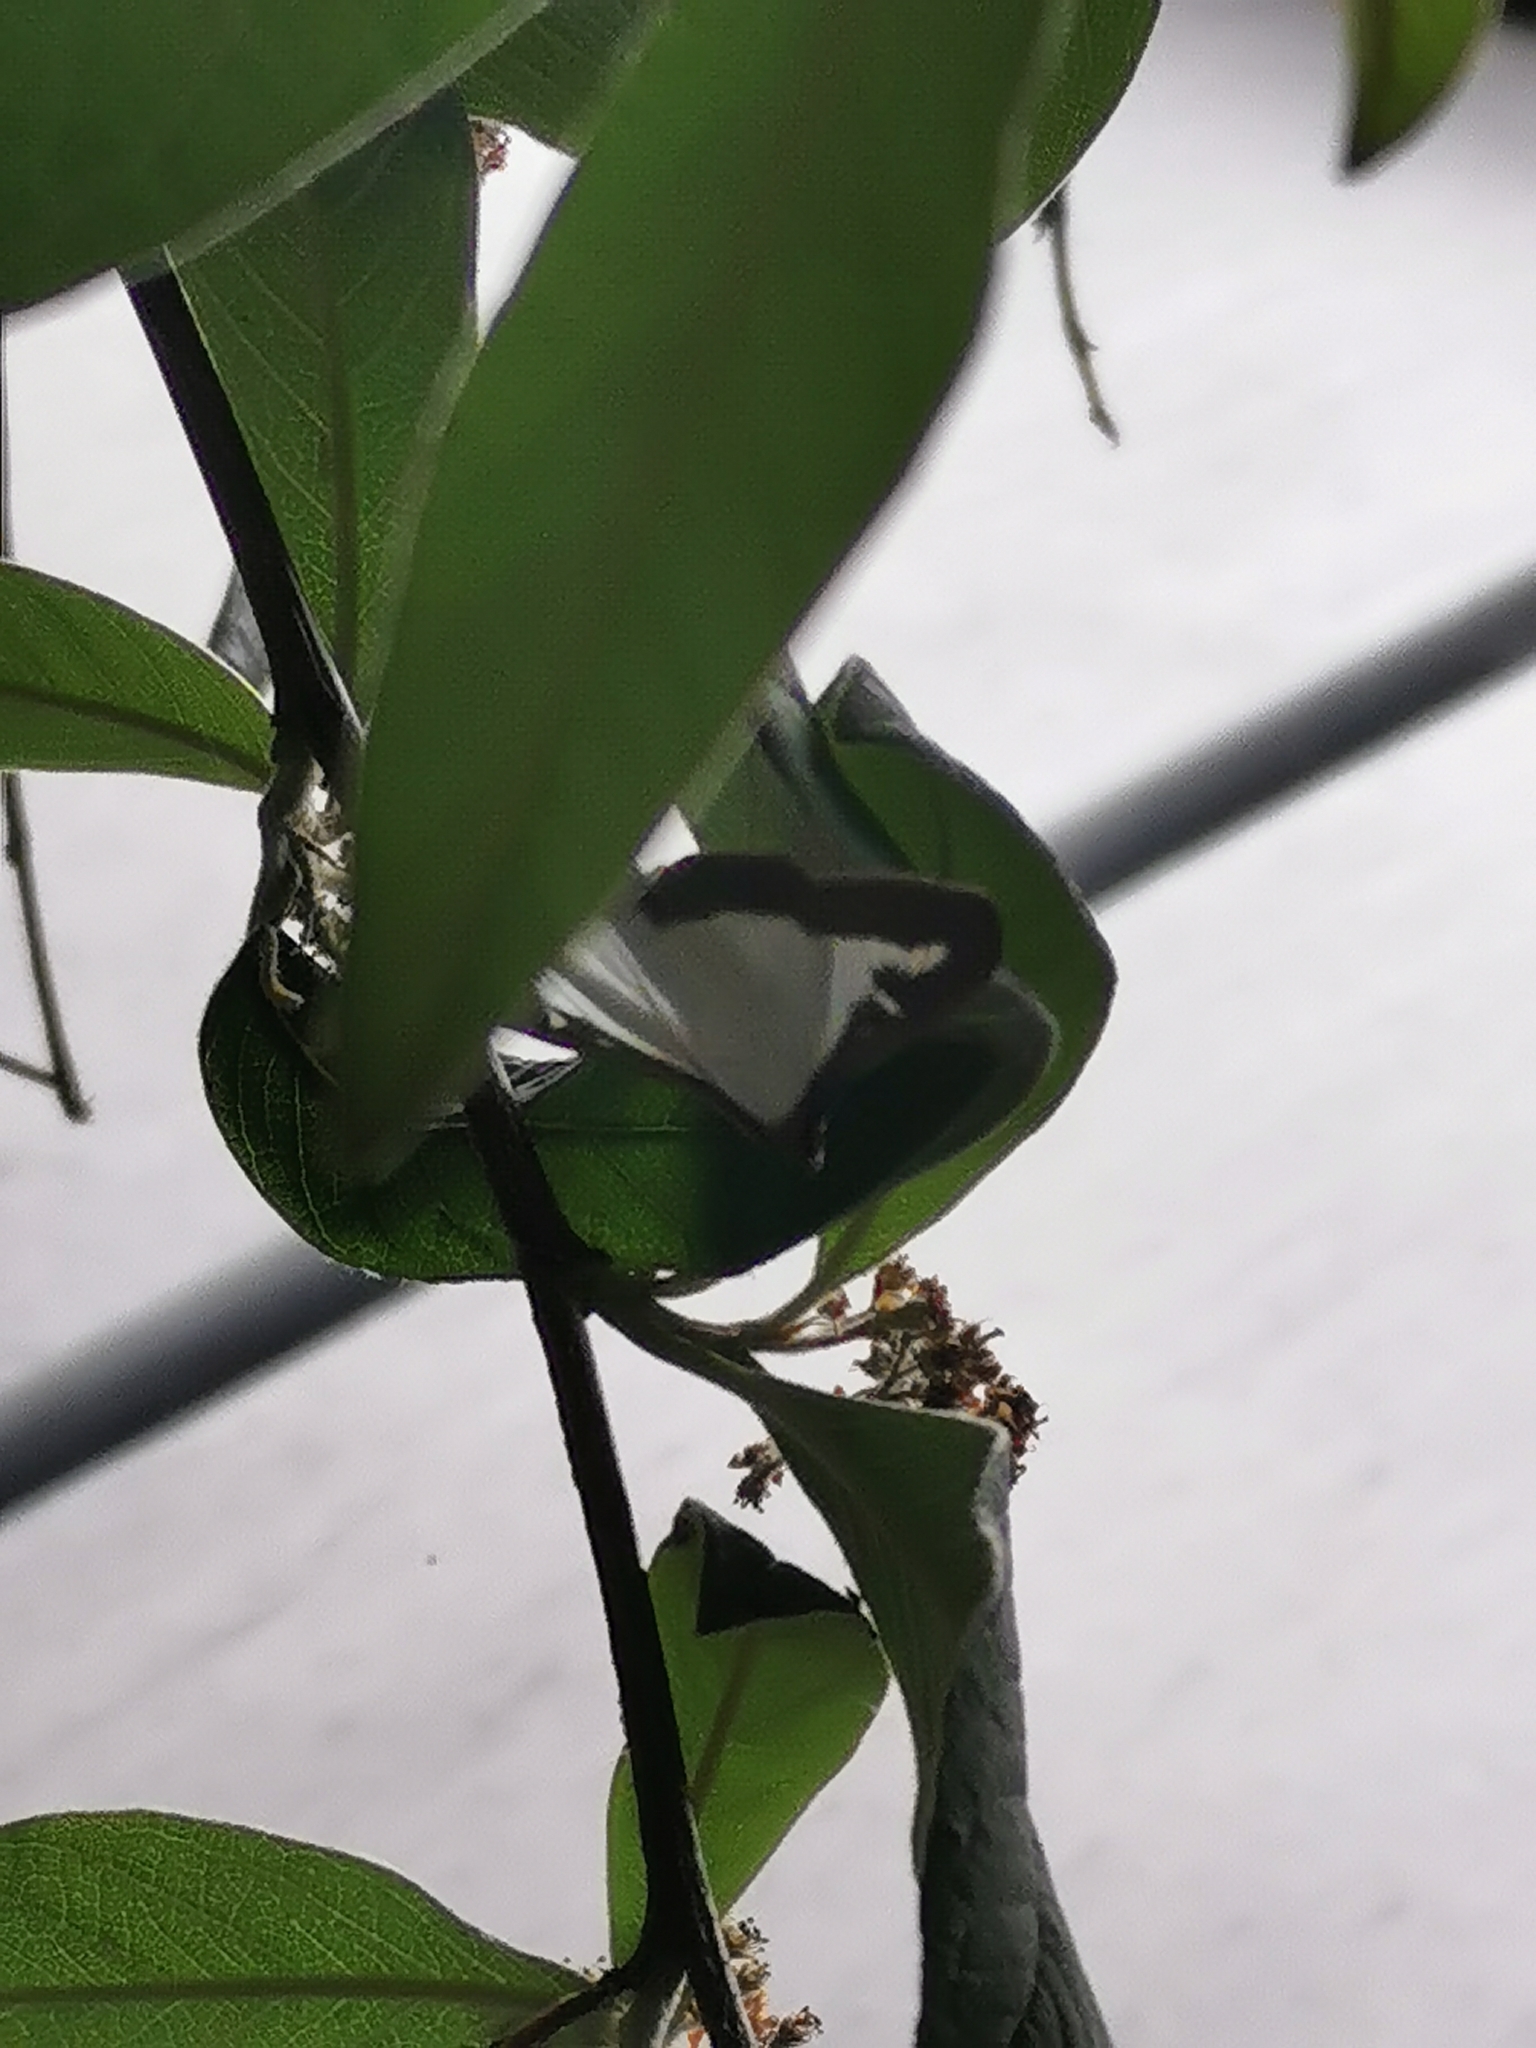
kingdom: Animalia
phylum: Arthropoda
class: Insecta
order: Lepidoptera
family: Crambidae
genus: Cydalima
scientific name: Cydalima perspectalis
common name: Box tree moth
